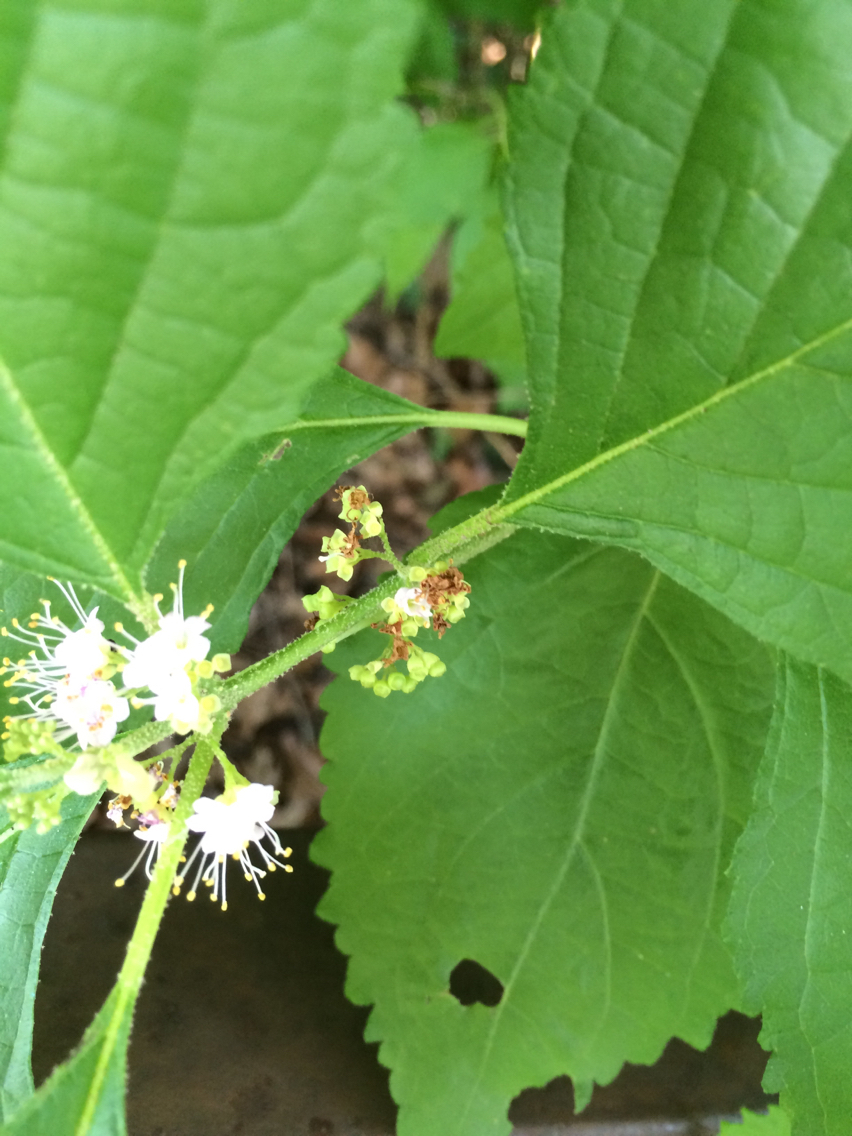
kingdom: Plantae
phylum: Tracheophyta
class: Magnoliopsida
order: Lamiales
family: Lamiaceae
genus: Callicarpa
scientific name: Callicarpa americana
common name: American beautyberry
